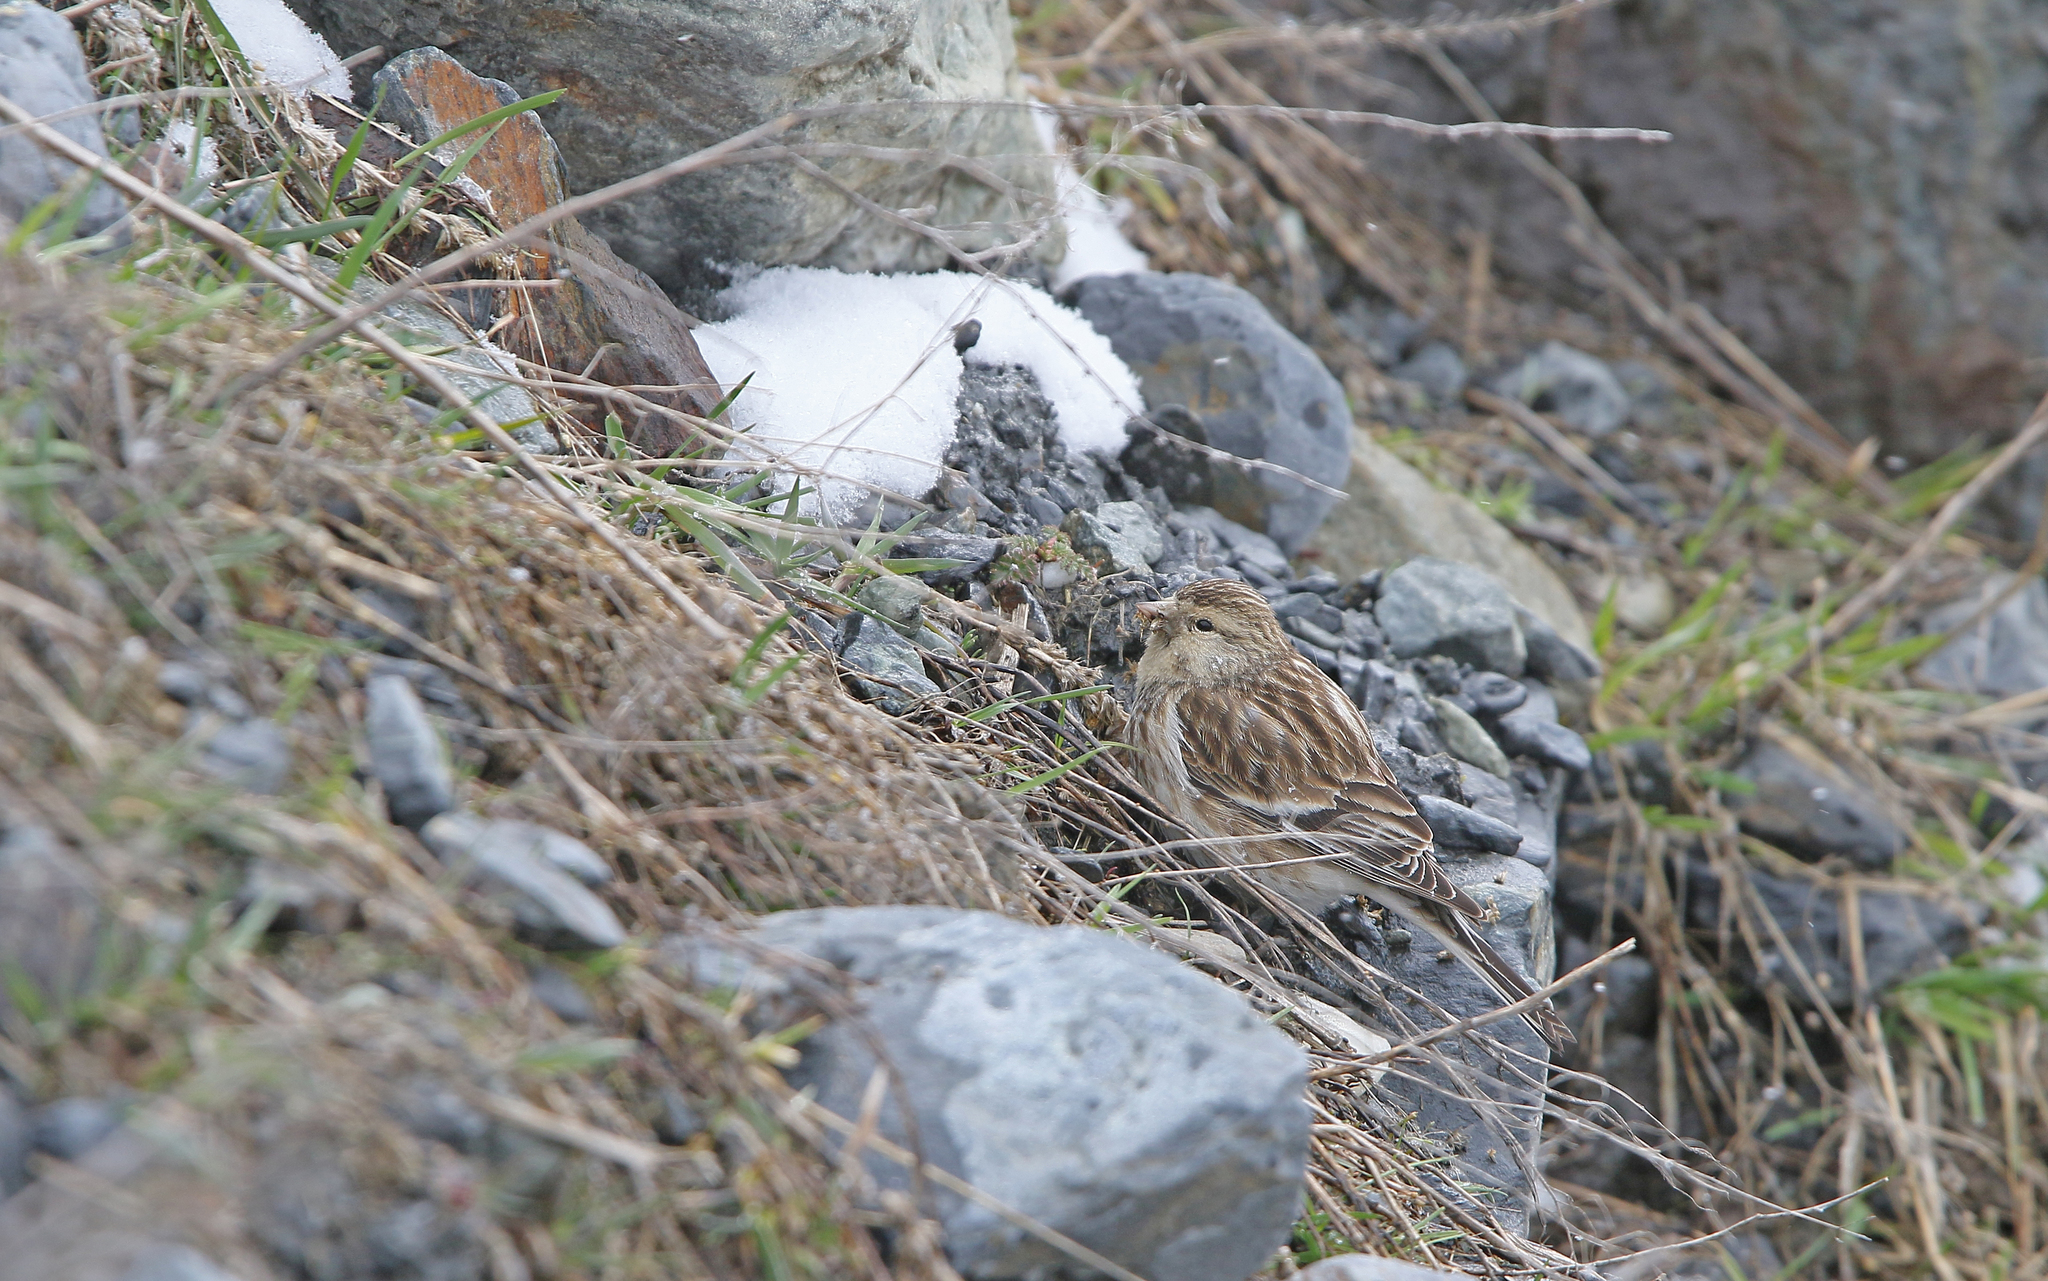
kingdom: Animalia
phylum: Chordata
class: Aves
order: Passeriformes
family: Fringillidae
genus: Linaria
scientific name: Linaria flavirostris
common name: Twite
